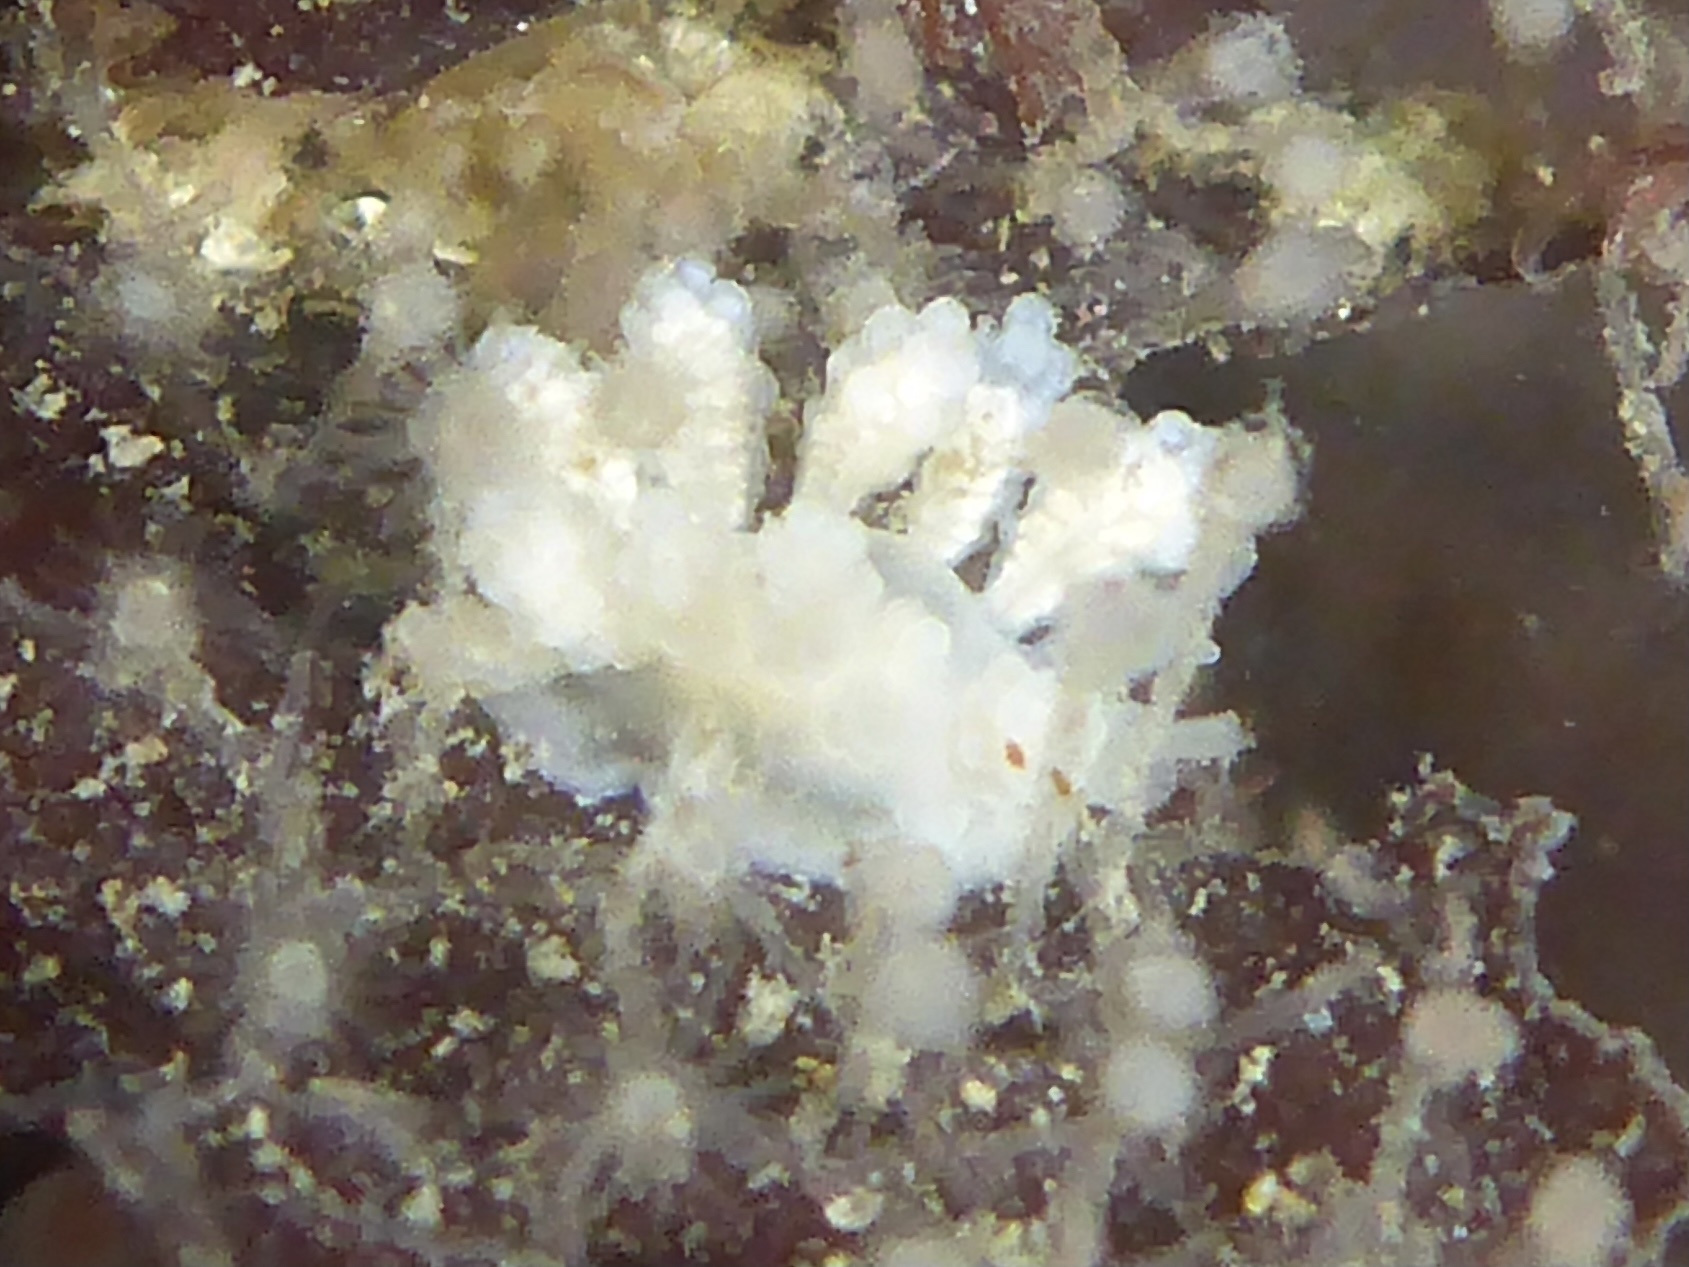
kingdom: Animalia
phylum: Mollusca
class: Gastropoda
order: Nudibranchia
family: Dotidae
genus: Doto
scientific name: Doto amyra
